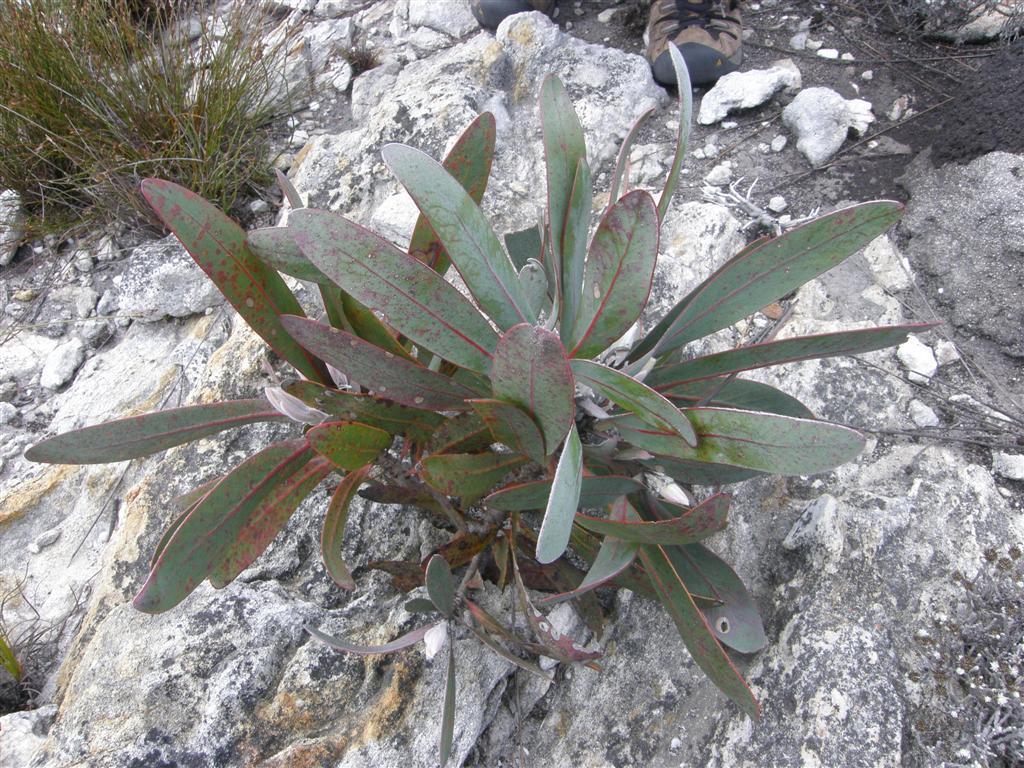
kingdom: Plantae
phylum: Tracheophyta
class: Magnoliopsida
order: Proteales
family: Proteaceae
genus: Protea
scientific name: Protea lorifolia
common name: Strap-leaved protea
